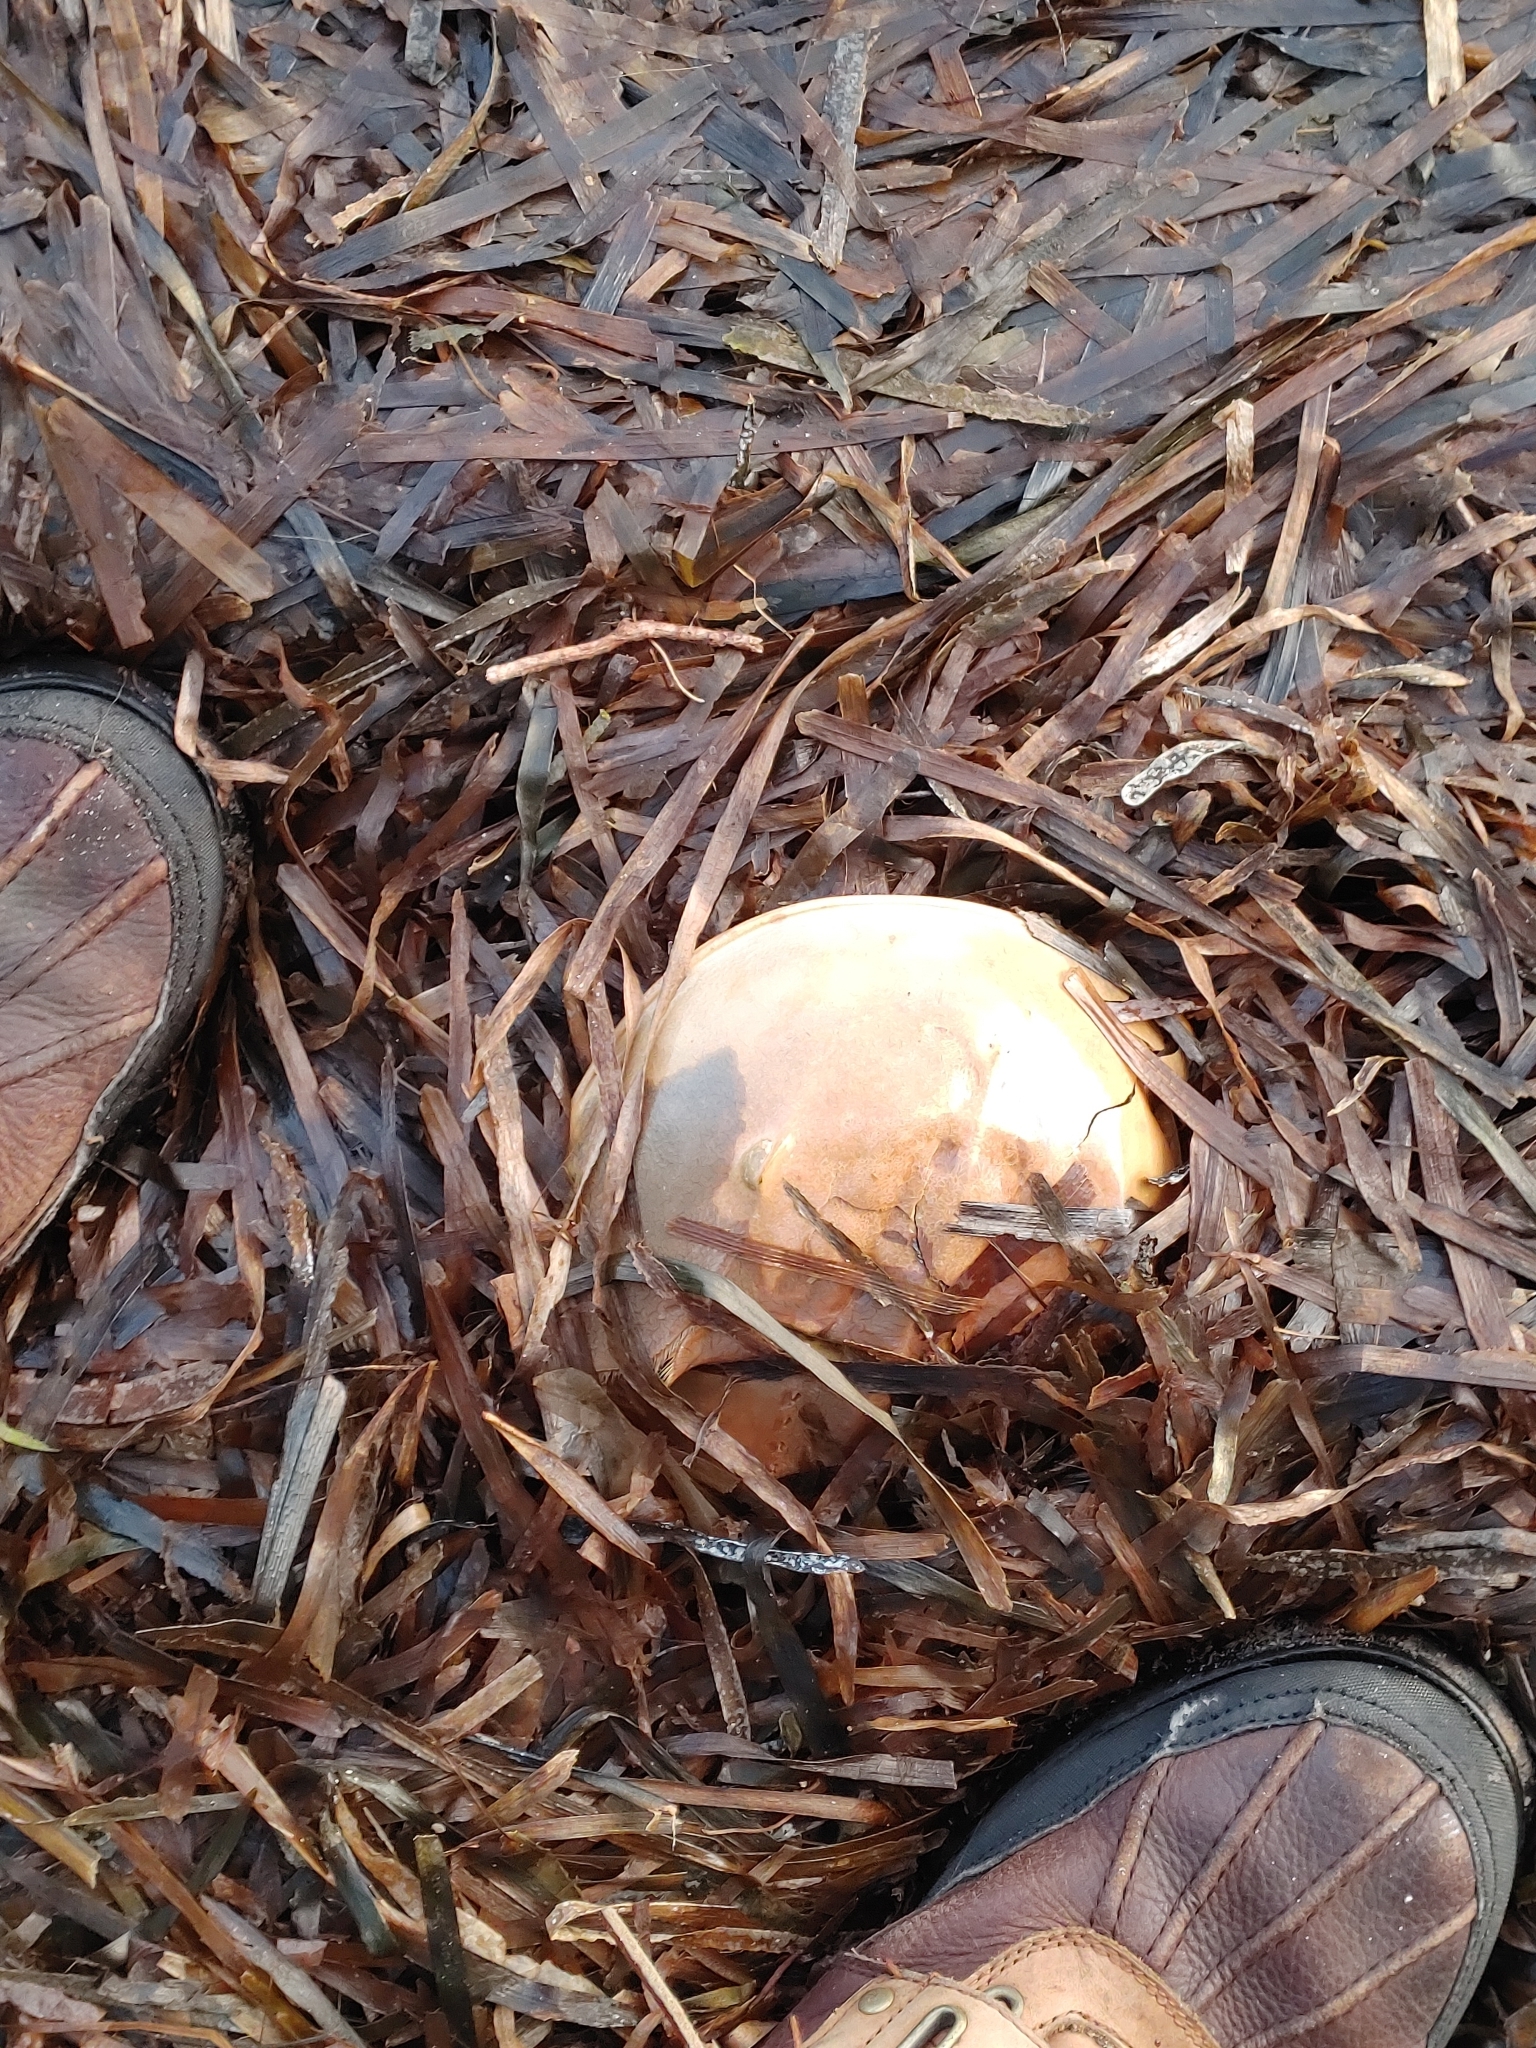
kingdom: Animalia
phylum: Arthropoda
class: Merostomata
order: Xiphosurida
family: Limulidae
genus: Limulus
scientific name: Limulus polyphemus
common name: Horseshoe crab
